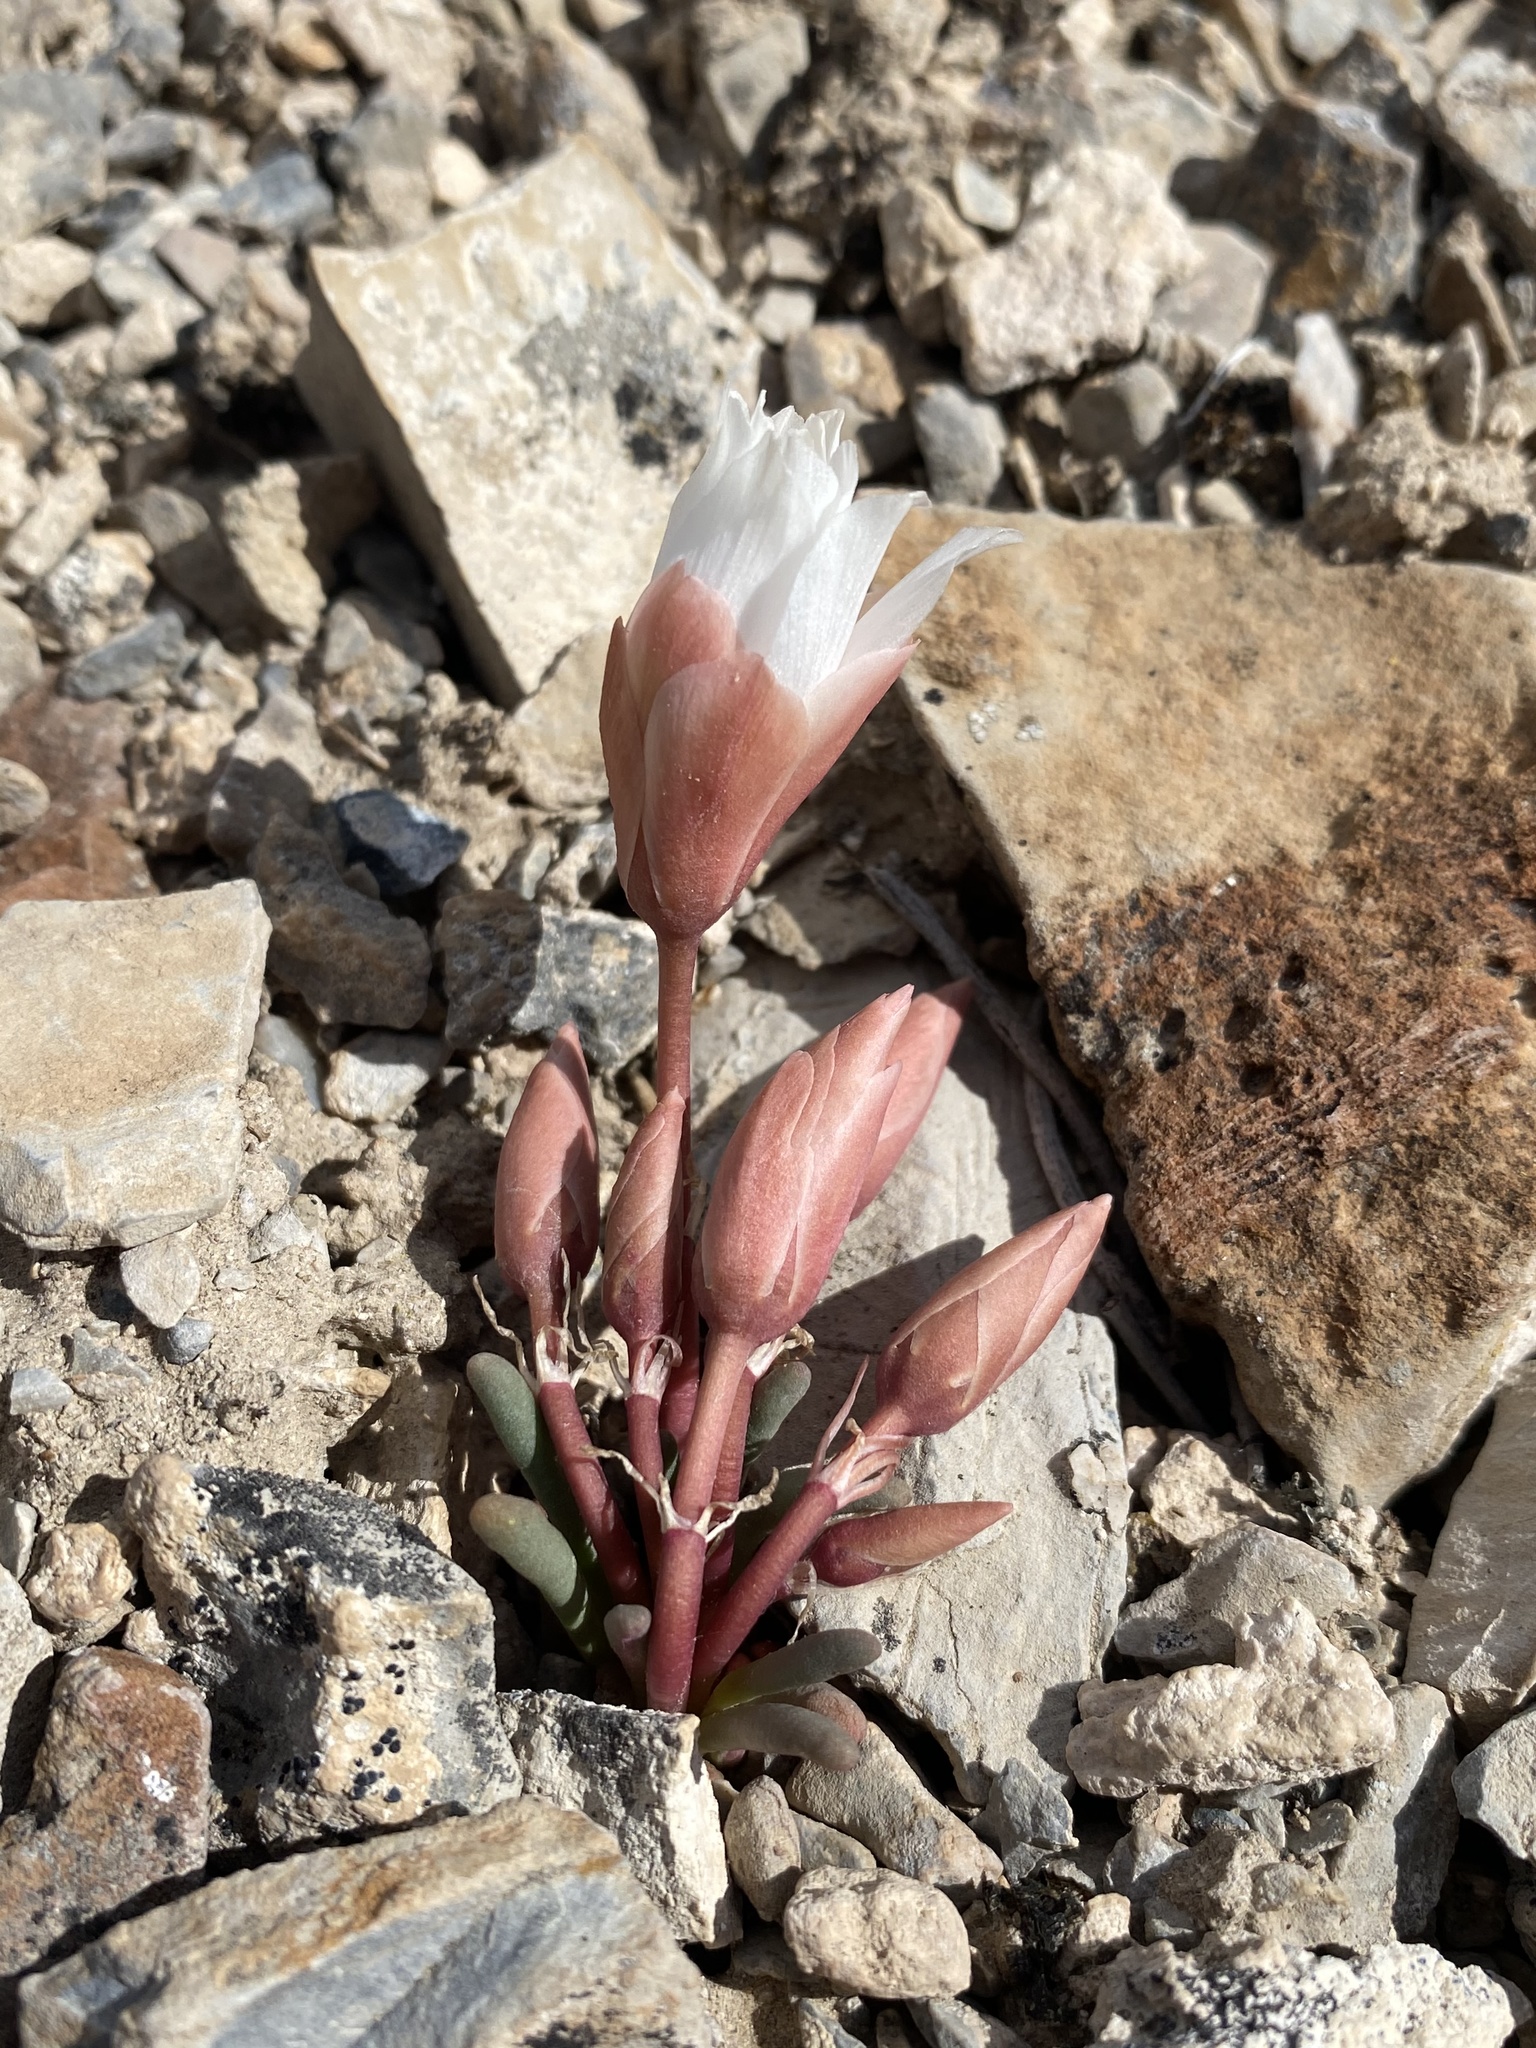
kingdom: Plantae
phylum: Tracheophyta
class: Magnoliopsida
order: Caryophyllales
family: Montiaceae
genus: Lewisia
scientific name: Lewisia rediviva
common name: Bitter-root
